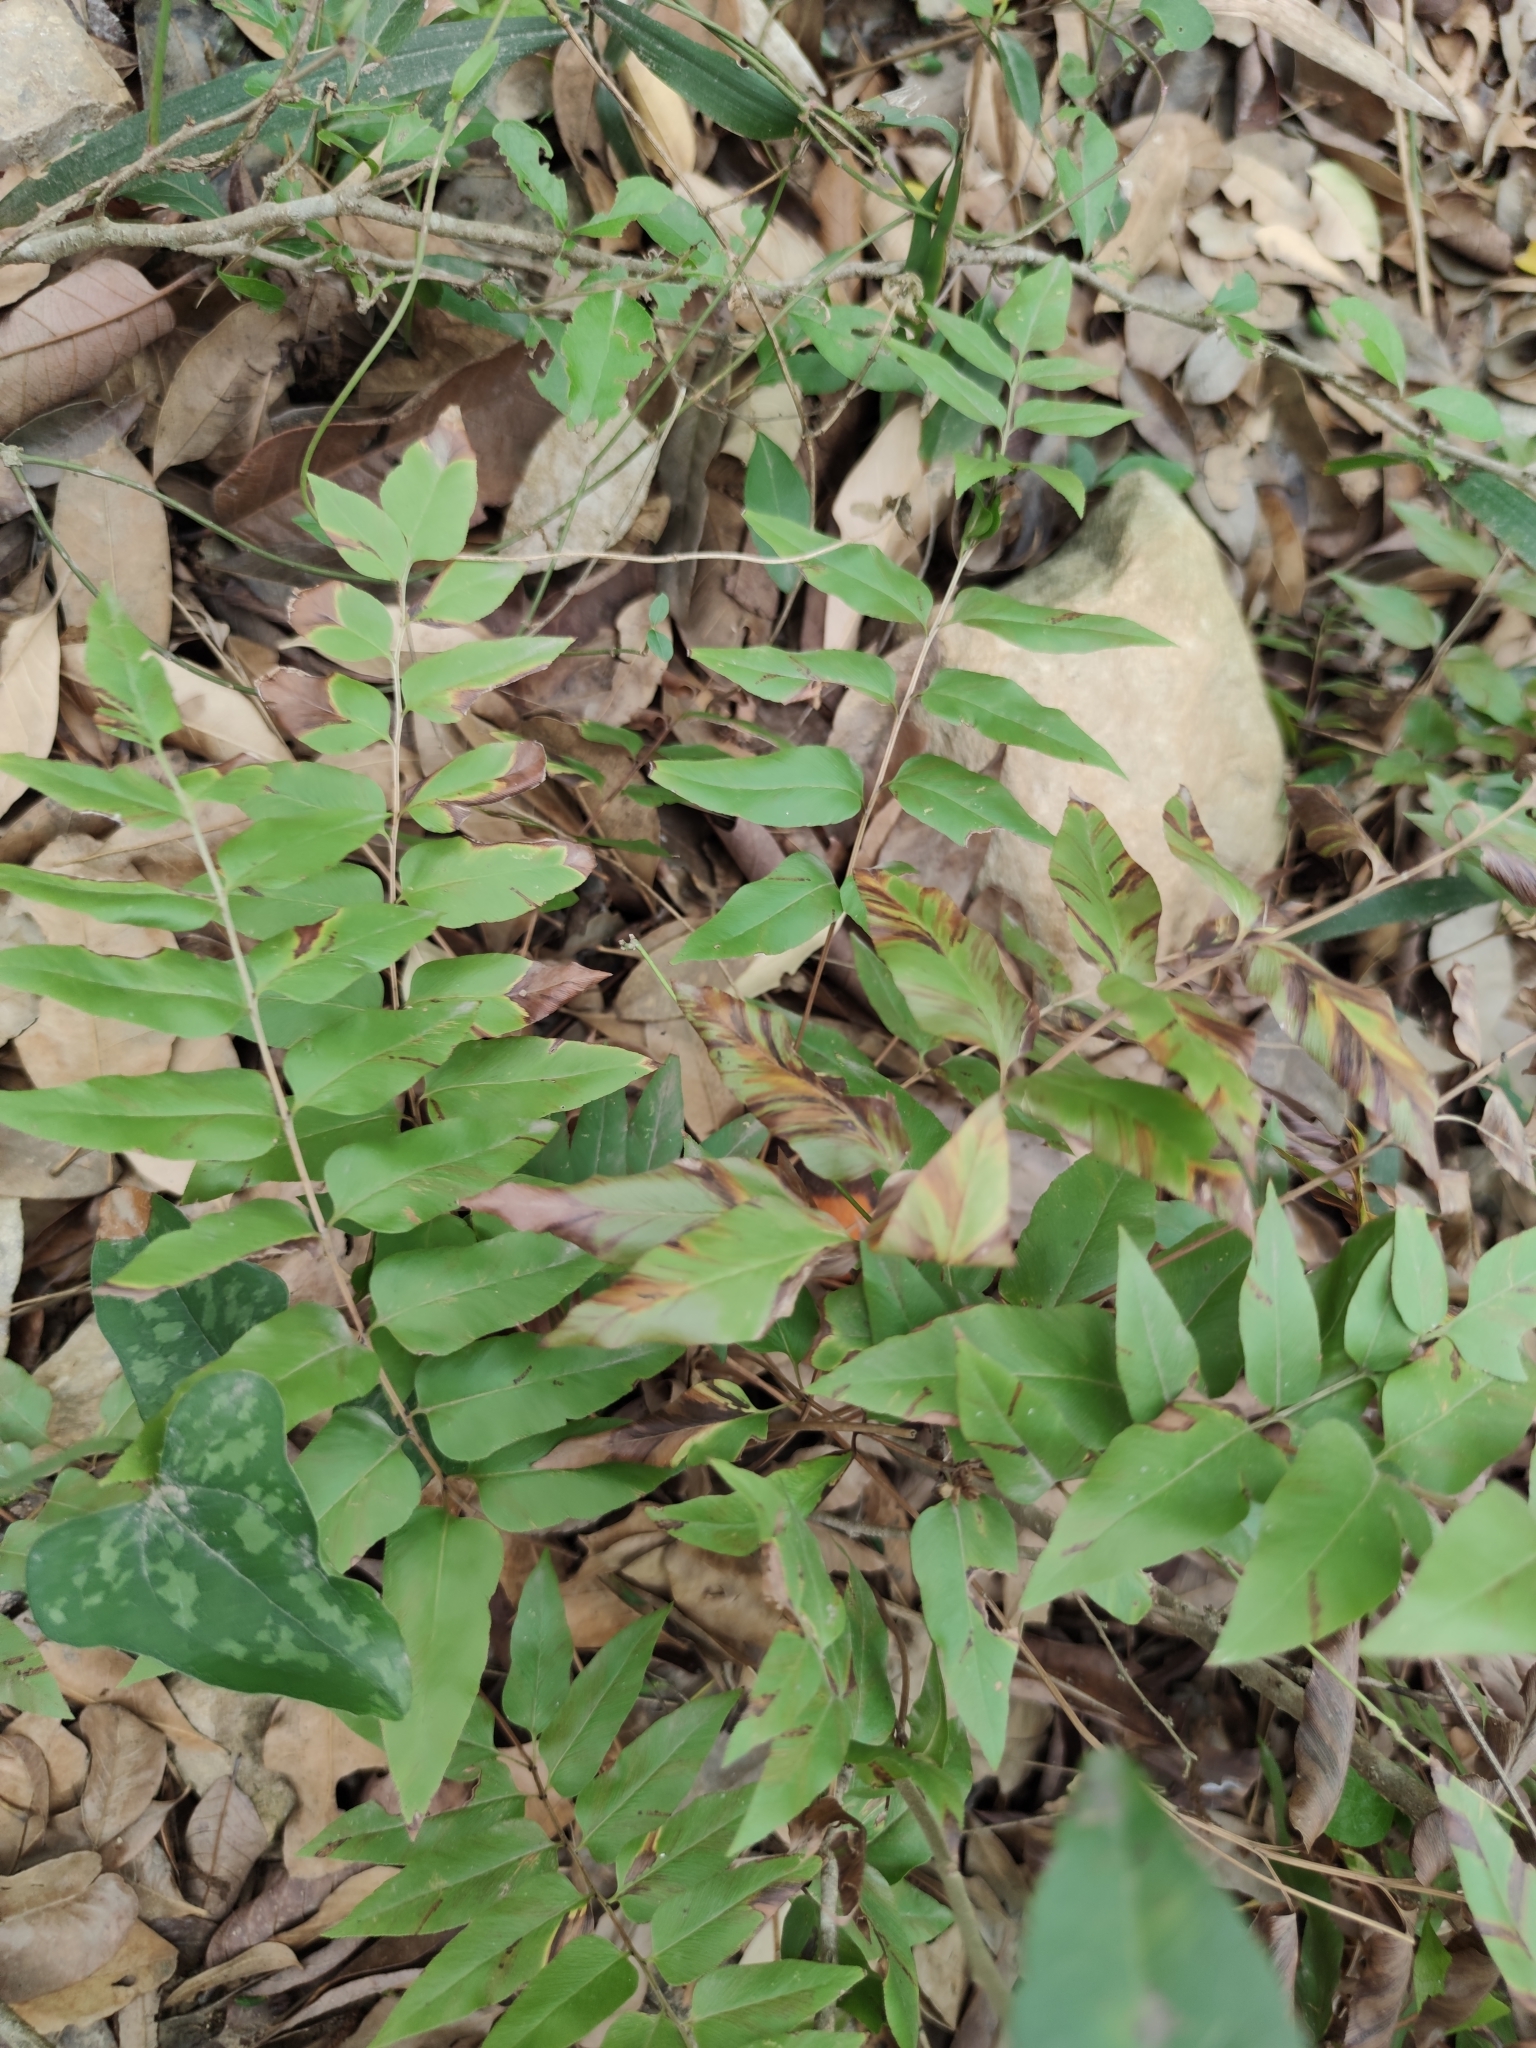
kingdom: Plantae
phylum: Tracheophyta
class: Polypodiopsida
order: Schizaeales
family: Anemiaceae
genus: Anemia
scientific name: Anemia mexicana
